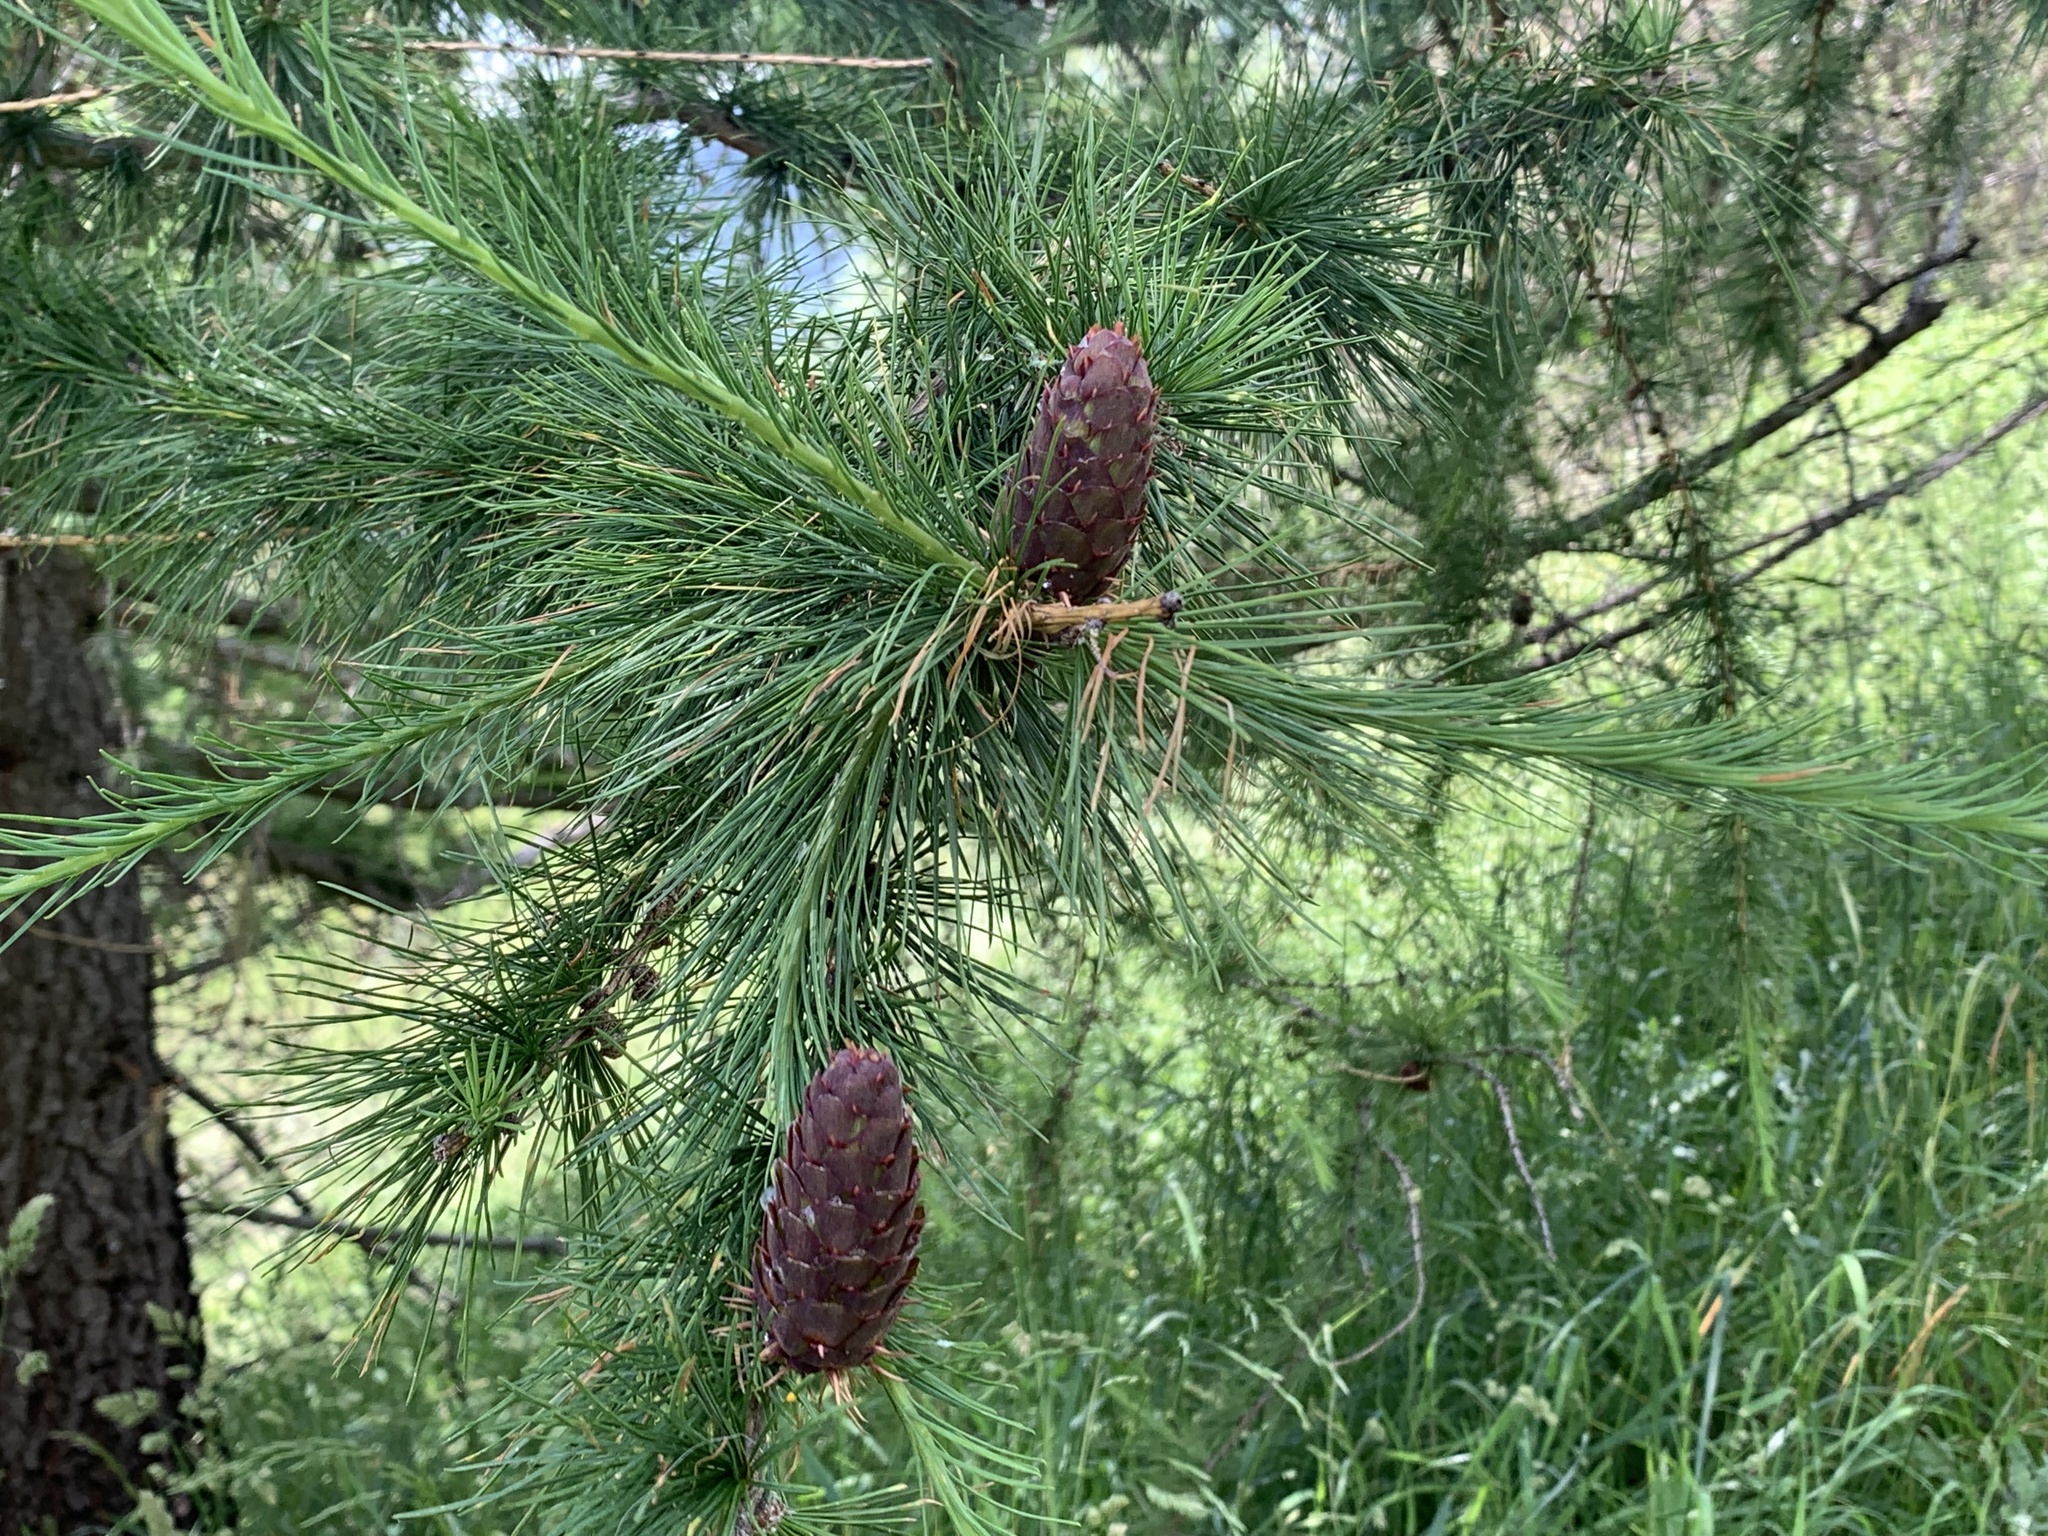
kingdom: Plantae
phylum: Tracheophyta
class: Pinopsida
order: Pinales
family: Pinaceae
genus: Larix
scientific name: Larix decidua
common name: European larch
